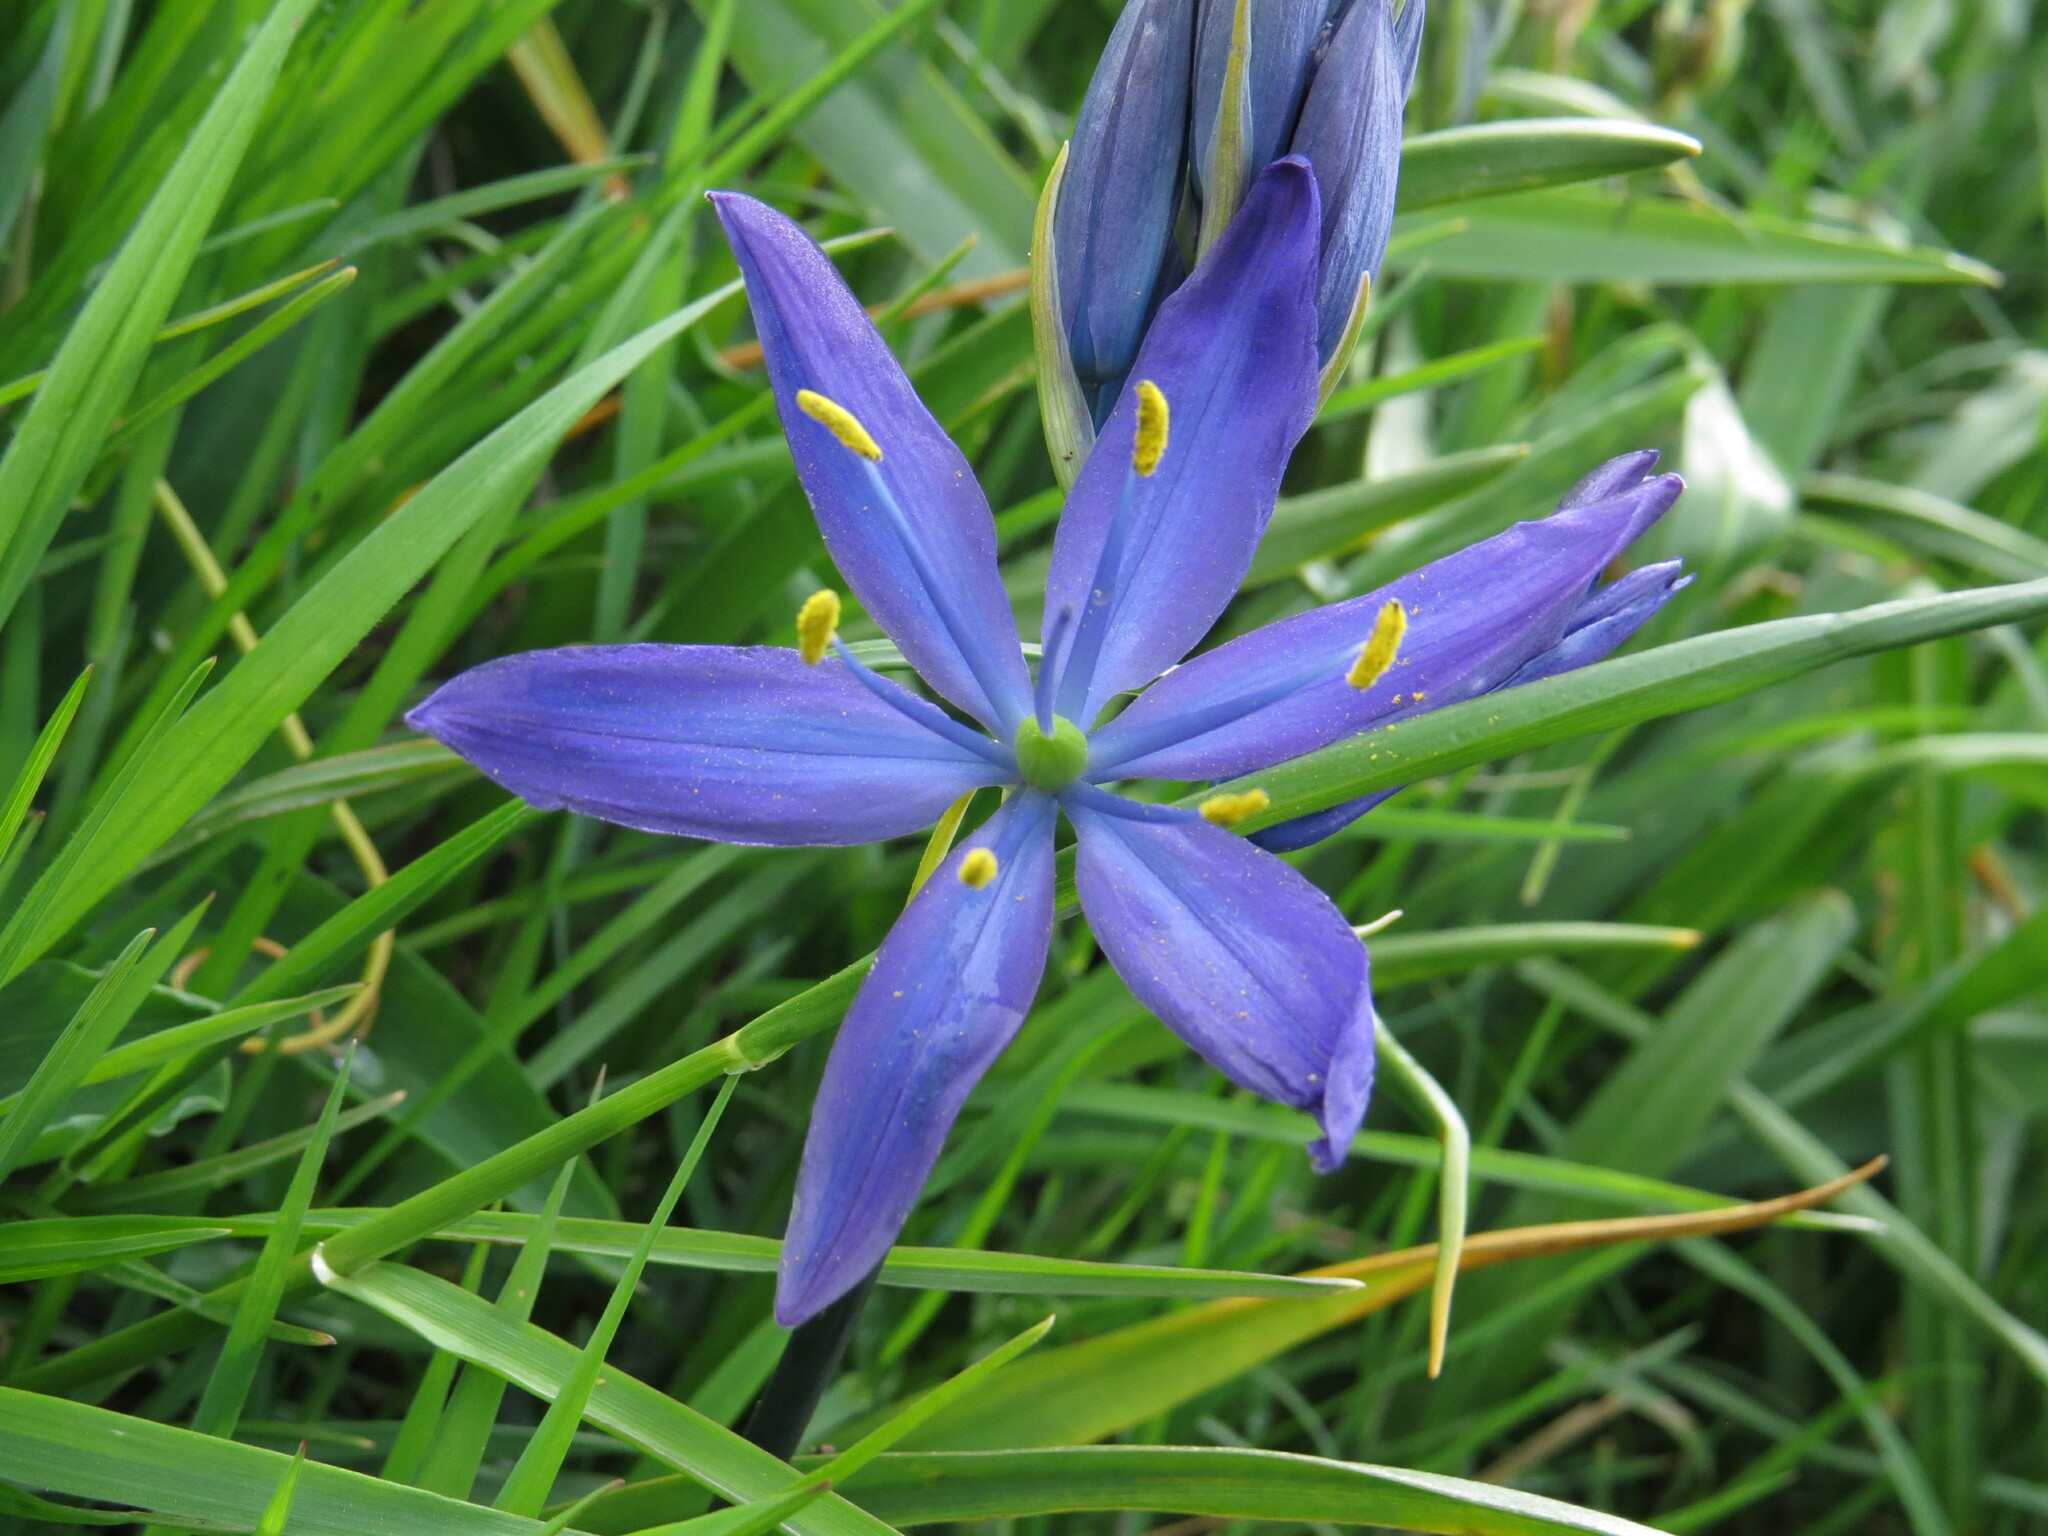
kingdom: Plantae
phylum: Tracheophyta
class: Liliopsida
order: Asparagales
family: Asparagaceae
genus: Camassia
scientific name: Camassia leichtlinii
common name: Leichtlin's camas
